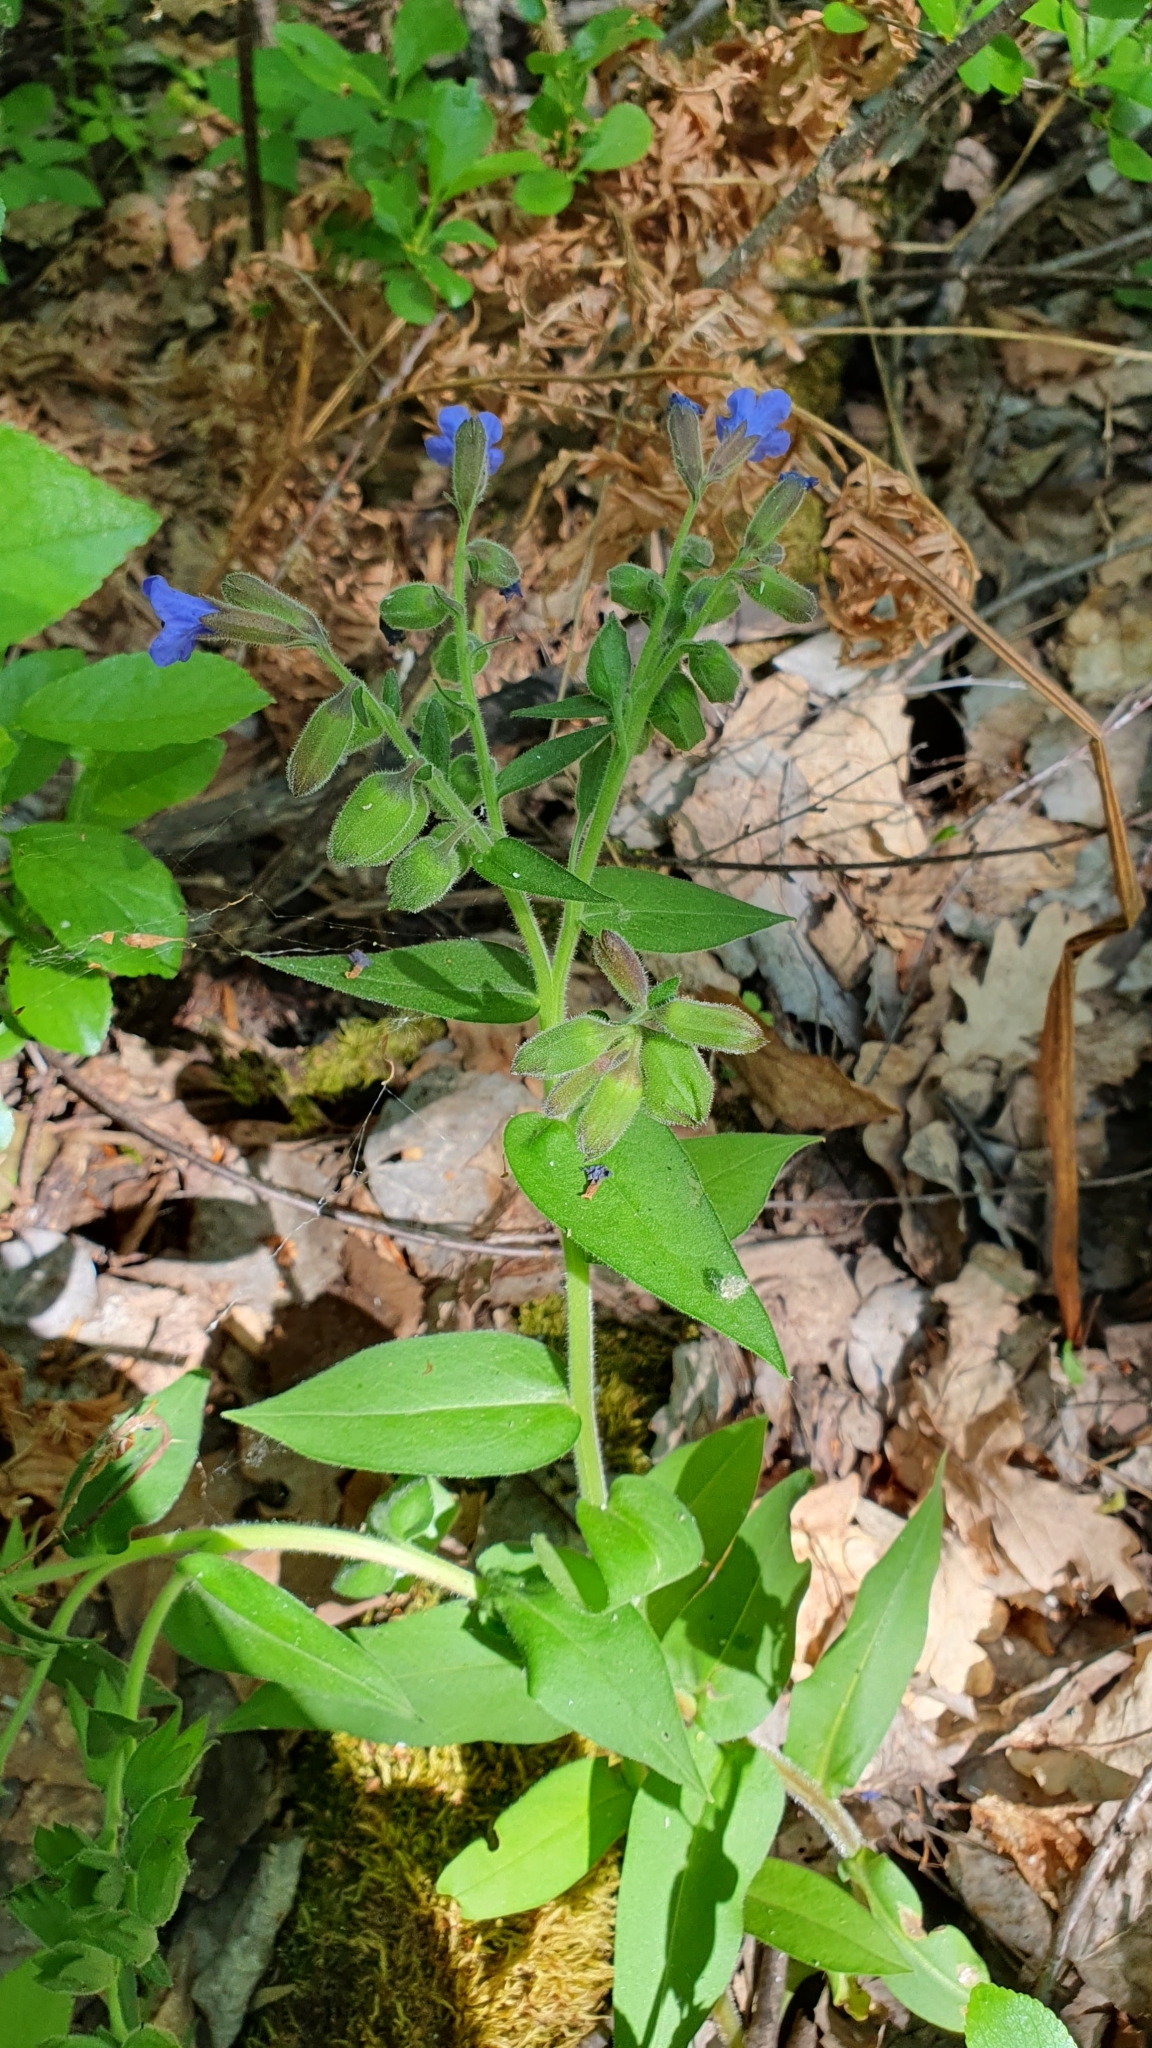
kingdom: Plantae
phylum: Tracheophyta
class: Magnoliopsida
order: Boraginales
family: Boraginaceae
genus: Pulmonaria
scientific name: Pulmonaria mollis
